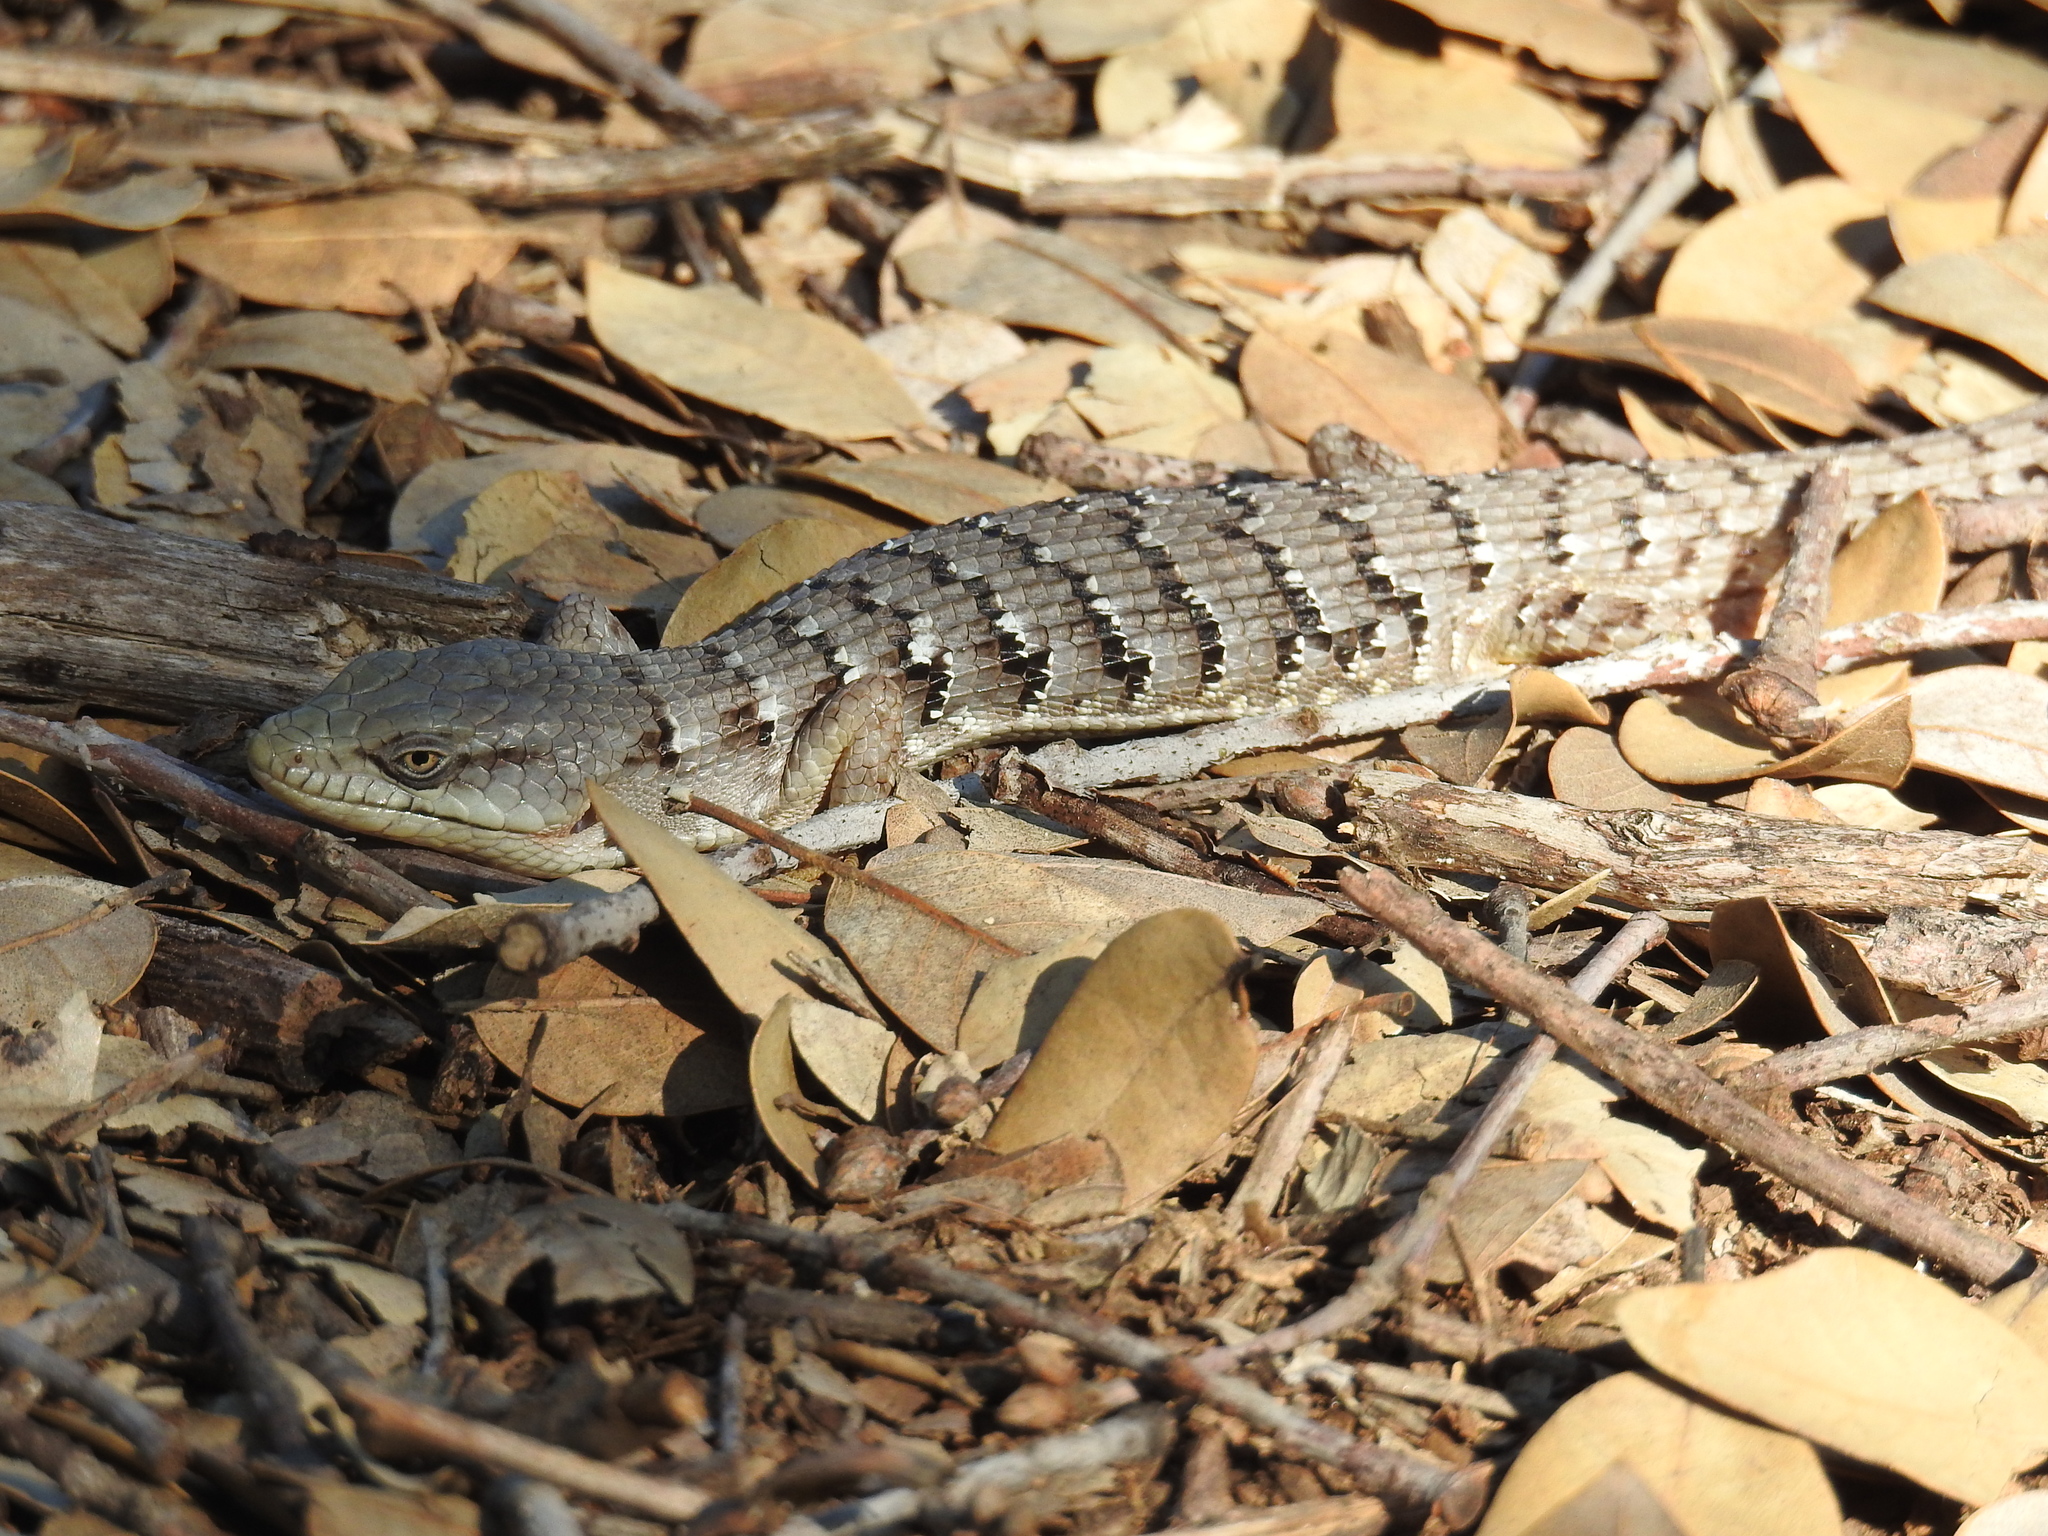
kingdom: Animalia
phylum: Chordata
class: Squamata
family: Anguidae
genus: Elgaria
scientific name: Elgaria multicarinata
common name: Southern alligator lizard
